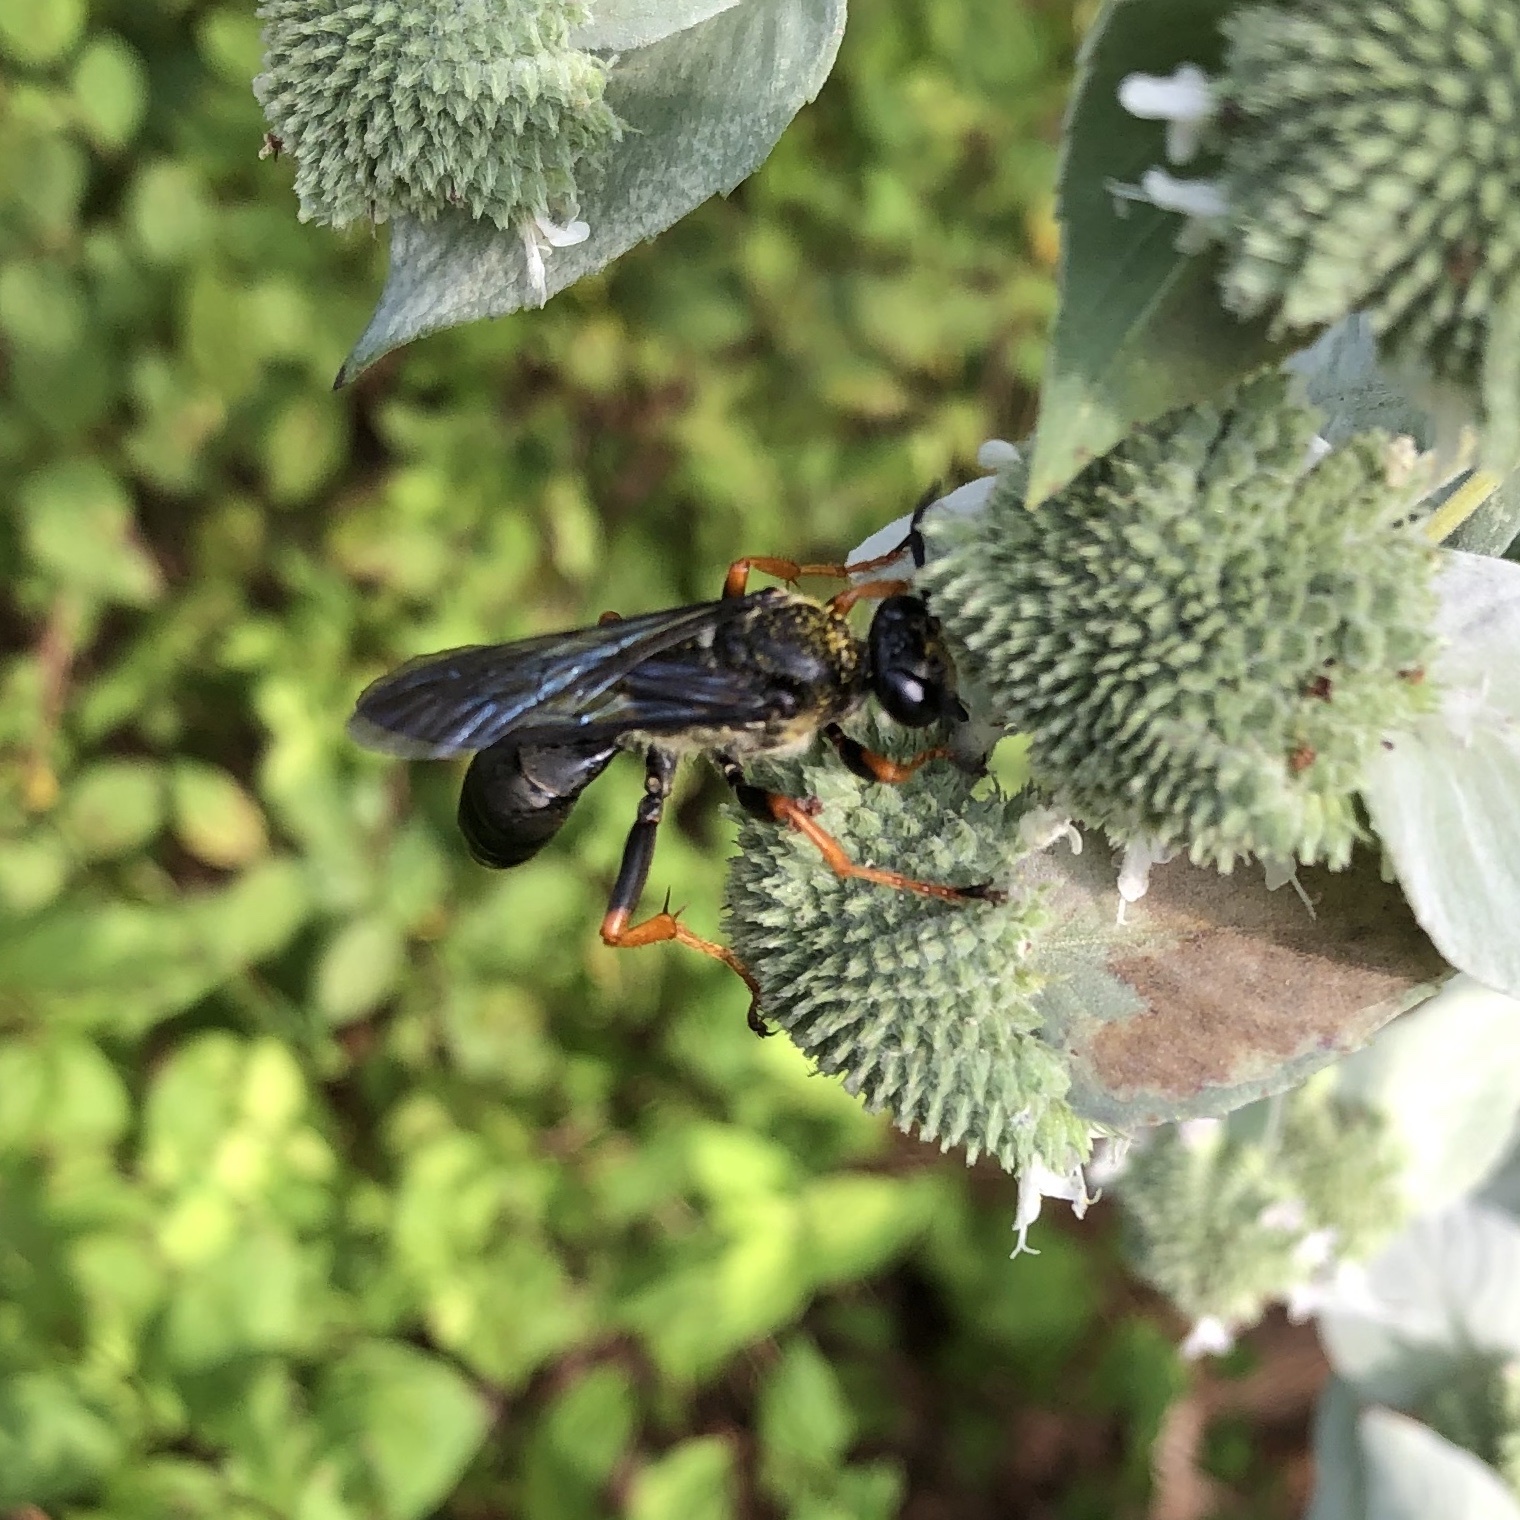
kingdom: Animalia
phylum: Arthropoda
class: Insecta
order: Hymenoptera
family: Sphecidae
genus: Sphex
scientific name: Sphex nudus
